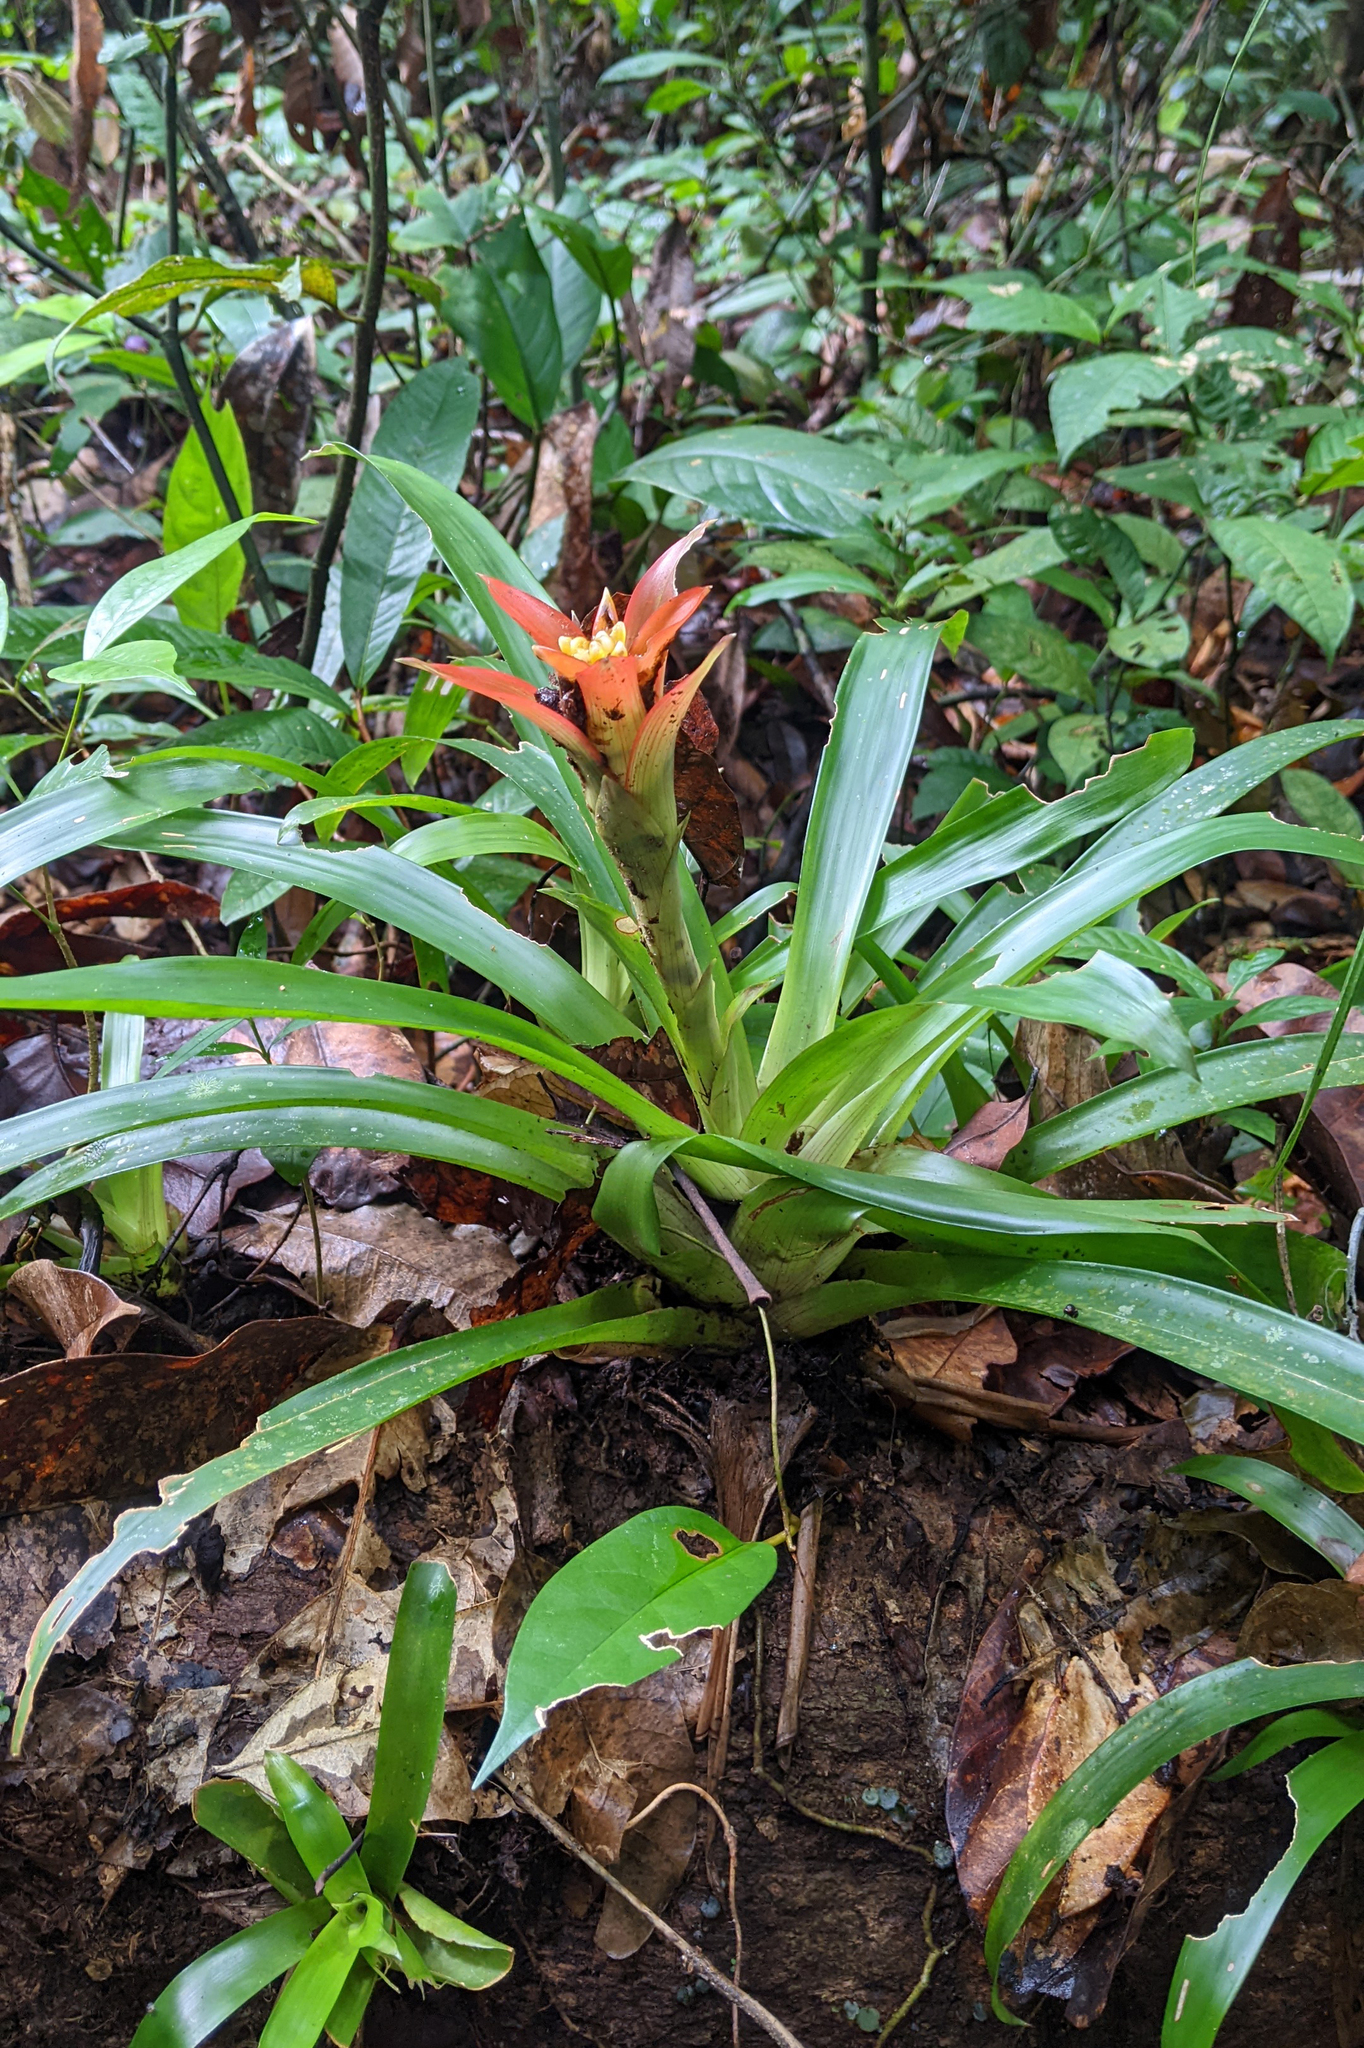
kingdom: Plantae
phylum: Tracheophyta
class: Liliopsida
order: Poales
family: Bromeliaceae
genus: Guzmania
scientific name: Guzmania lingulata
